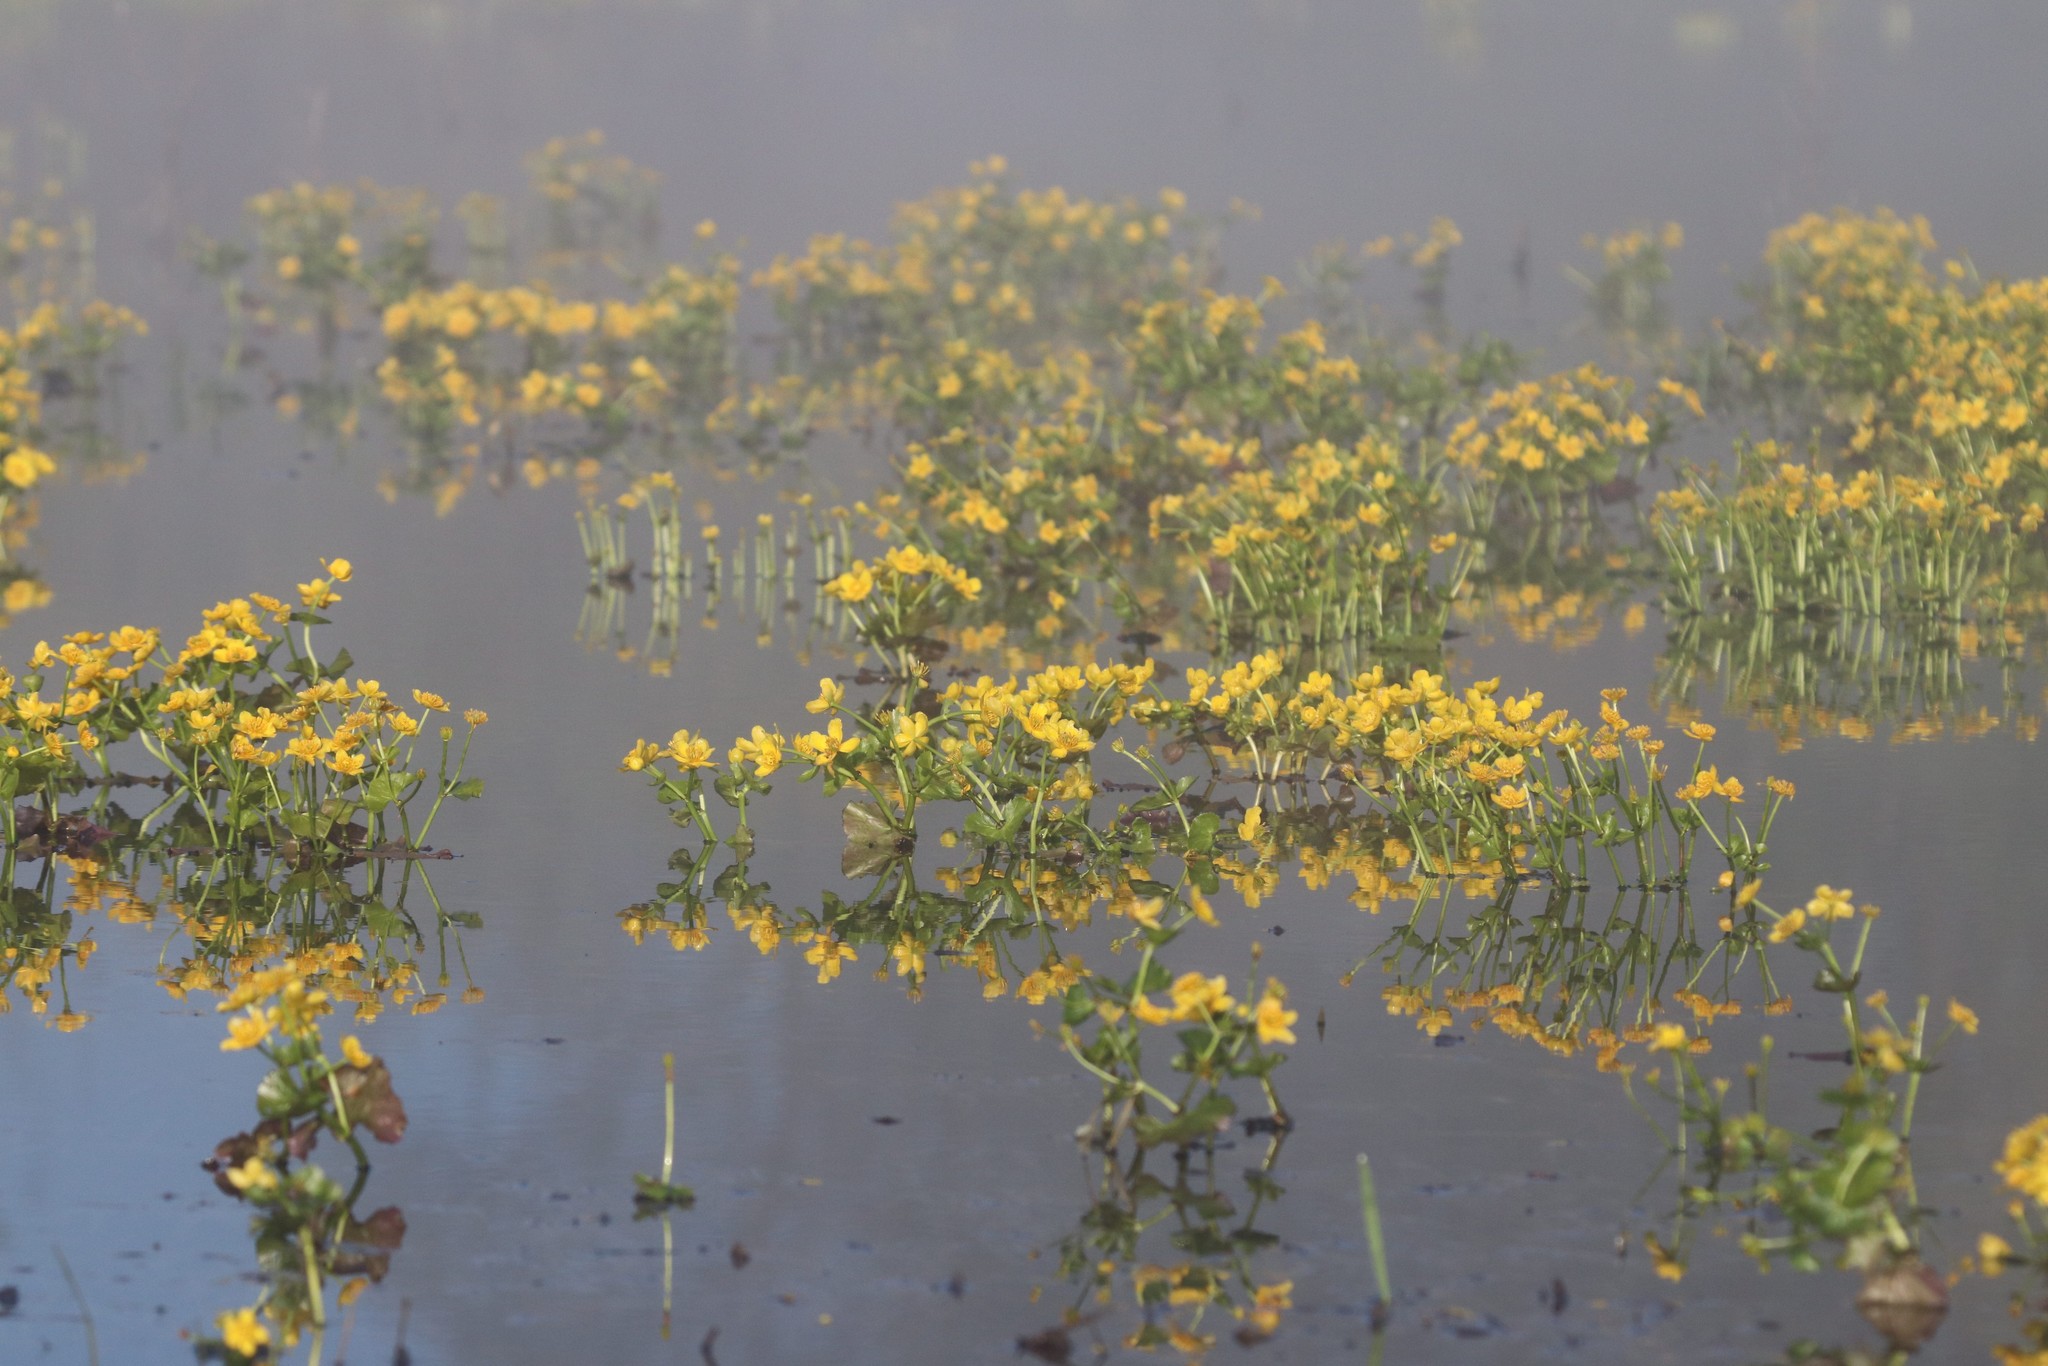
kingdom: Plantae
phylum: Tracheophyta
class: Magnoliopsida
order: Ranunculales
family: Ranunculaceae
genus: Caltha
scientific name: Caltha palustris
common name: Marsh marigold
